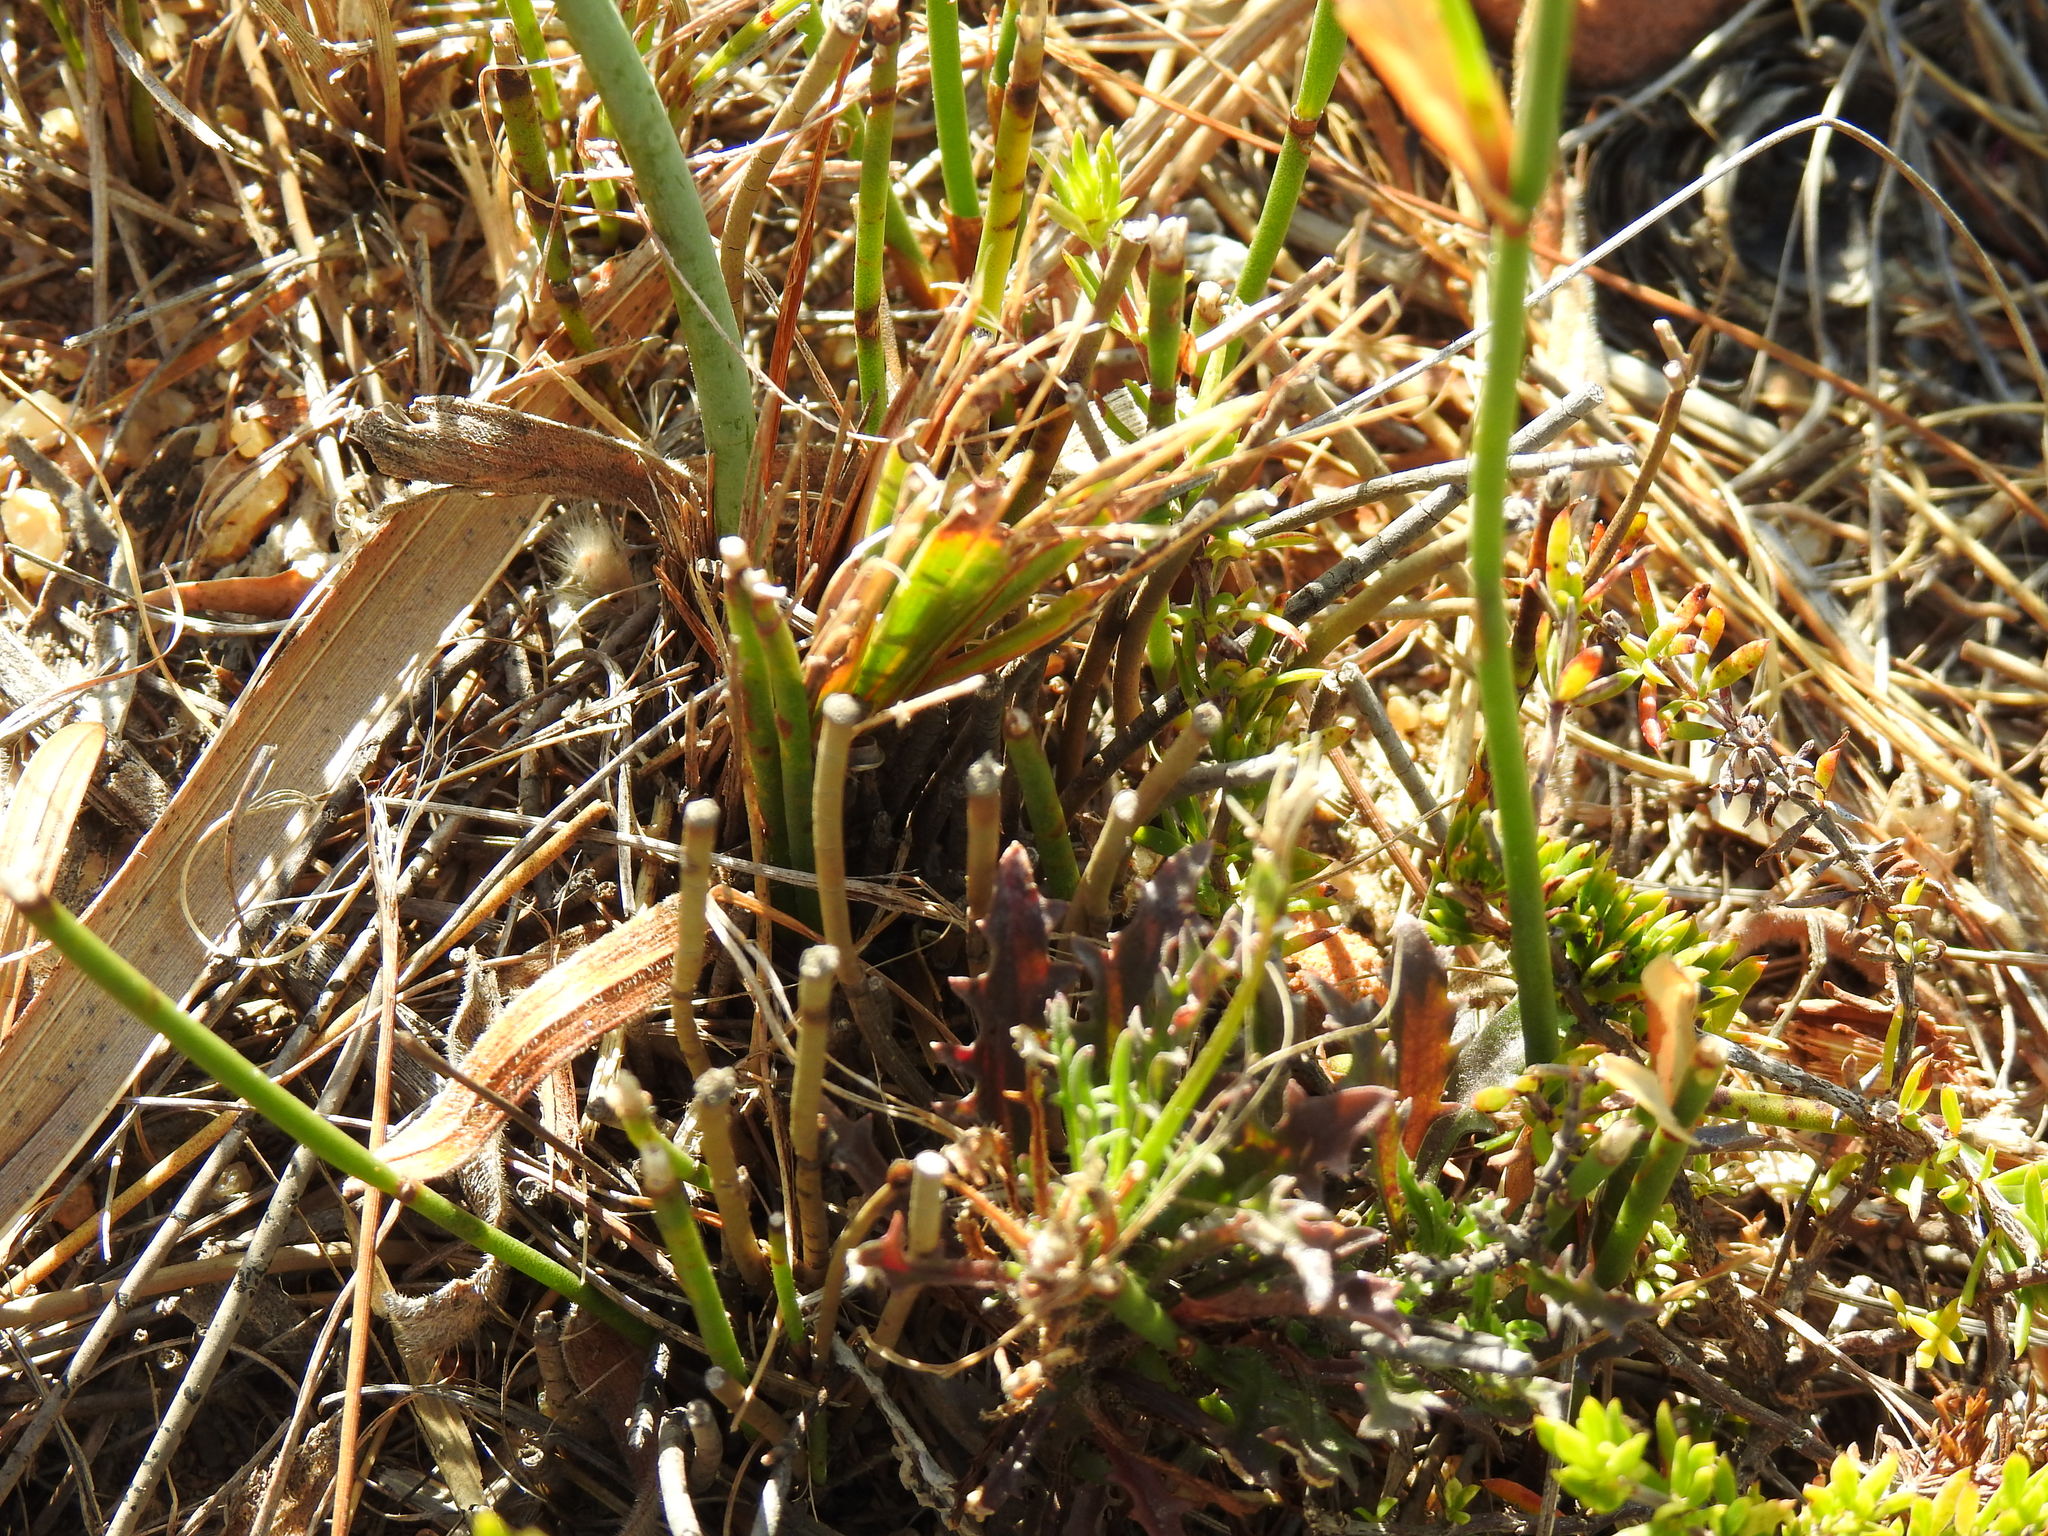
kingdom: Plantae
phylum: Tracheophyta
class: Liliopsida
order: Asparagales
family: Iridaceae
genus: Tritoniopsis
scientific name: Tritoniopsis antholyza
